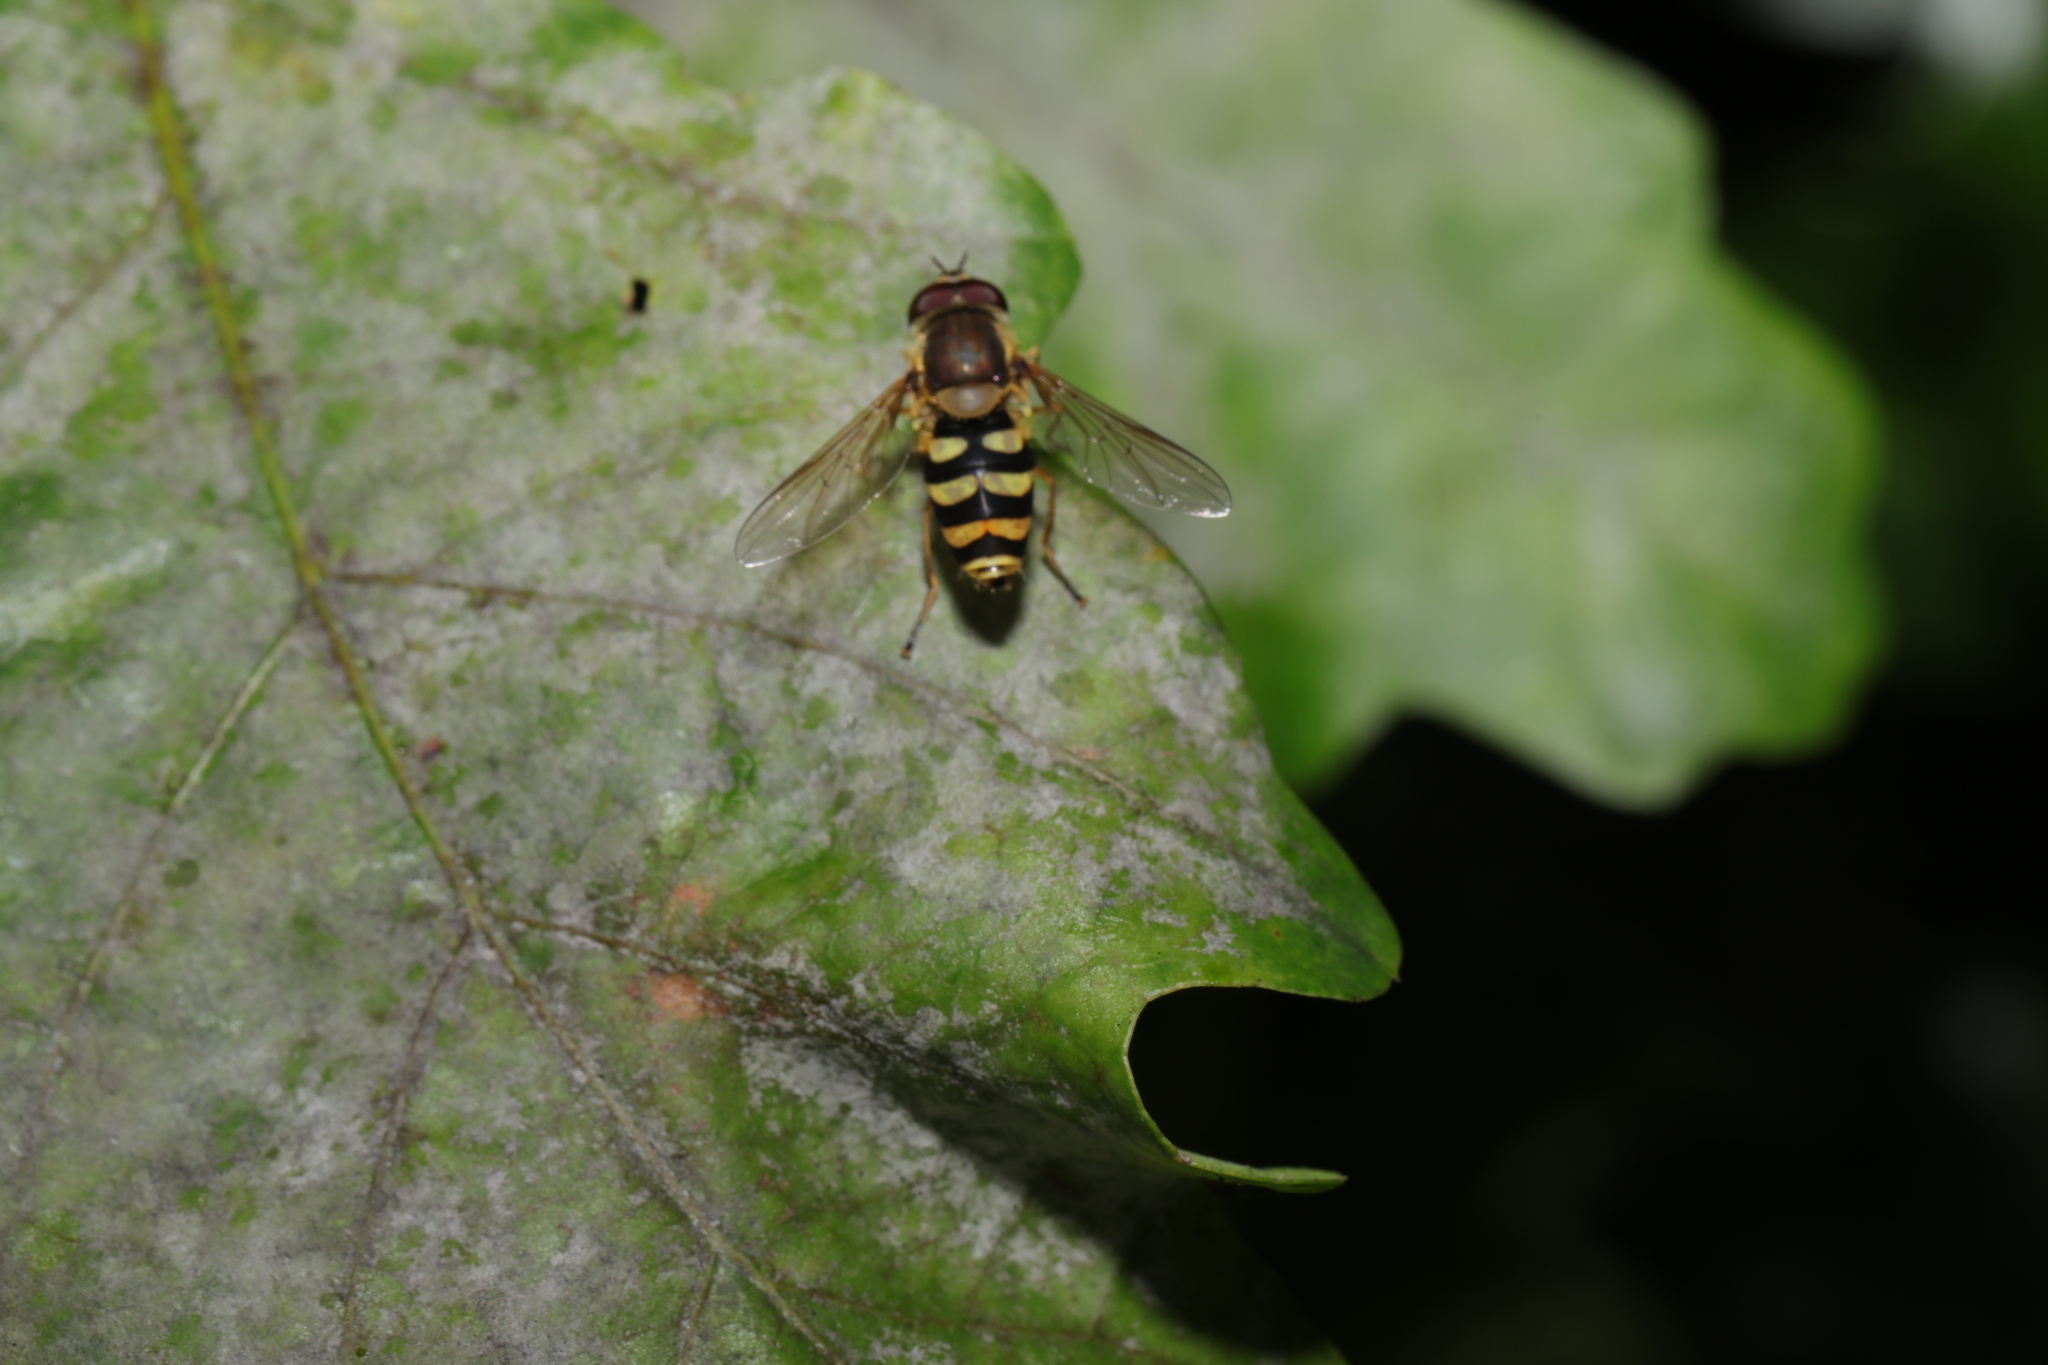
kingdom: Animalia
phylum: Arthropoda
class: Insecta
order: Diptera
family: Syrphidae
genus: Syrphus
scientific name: Syrphus
